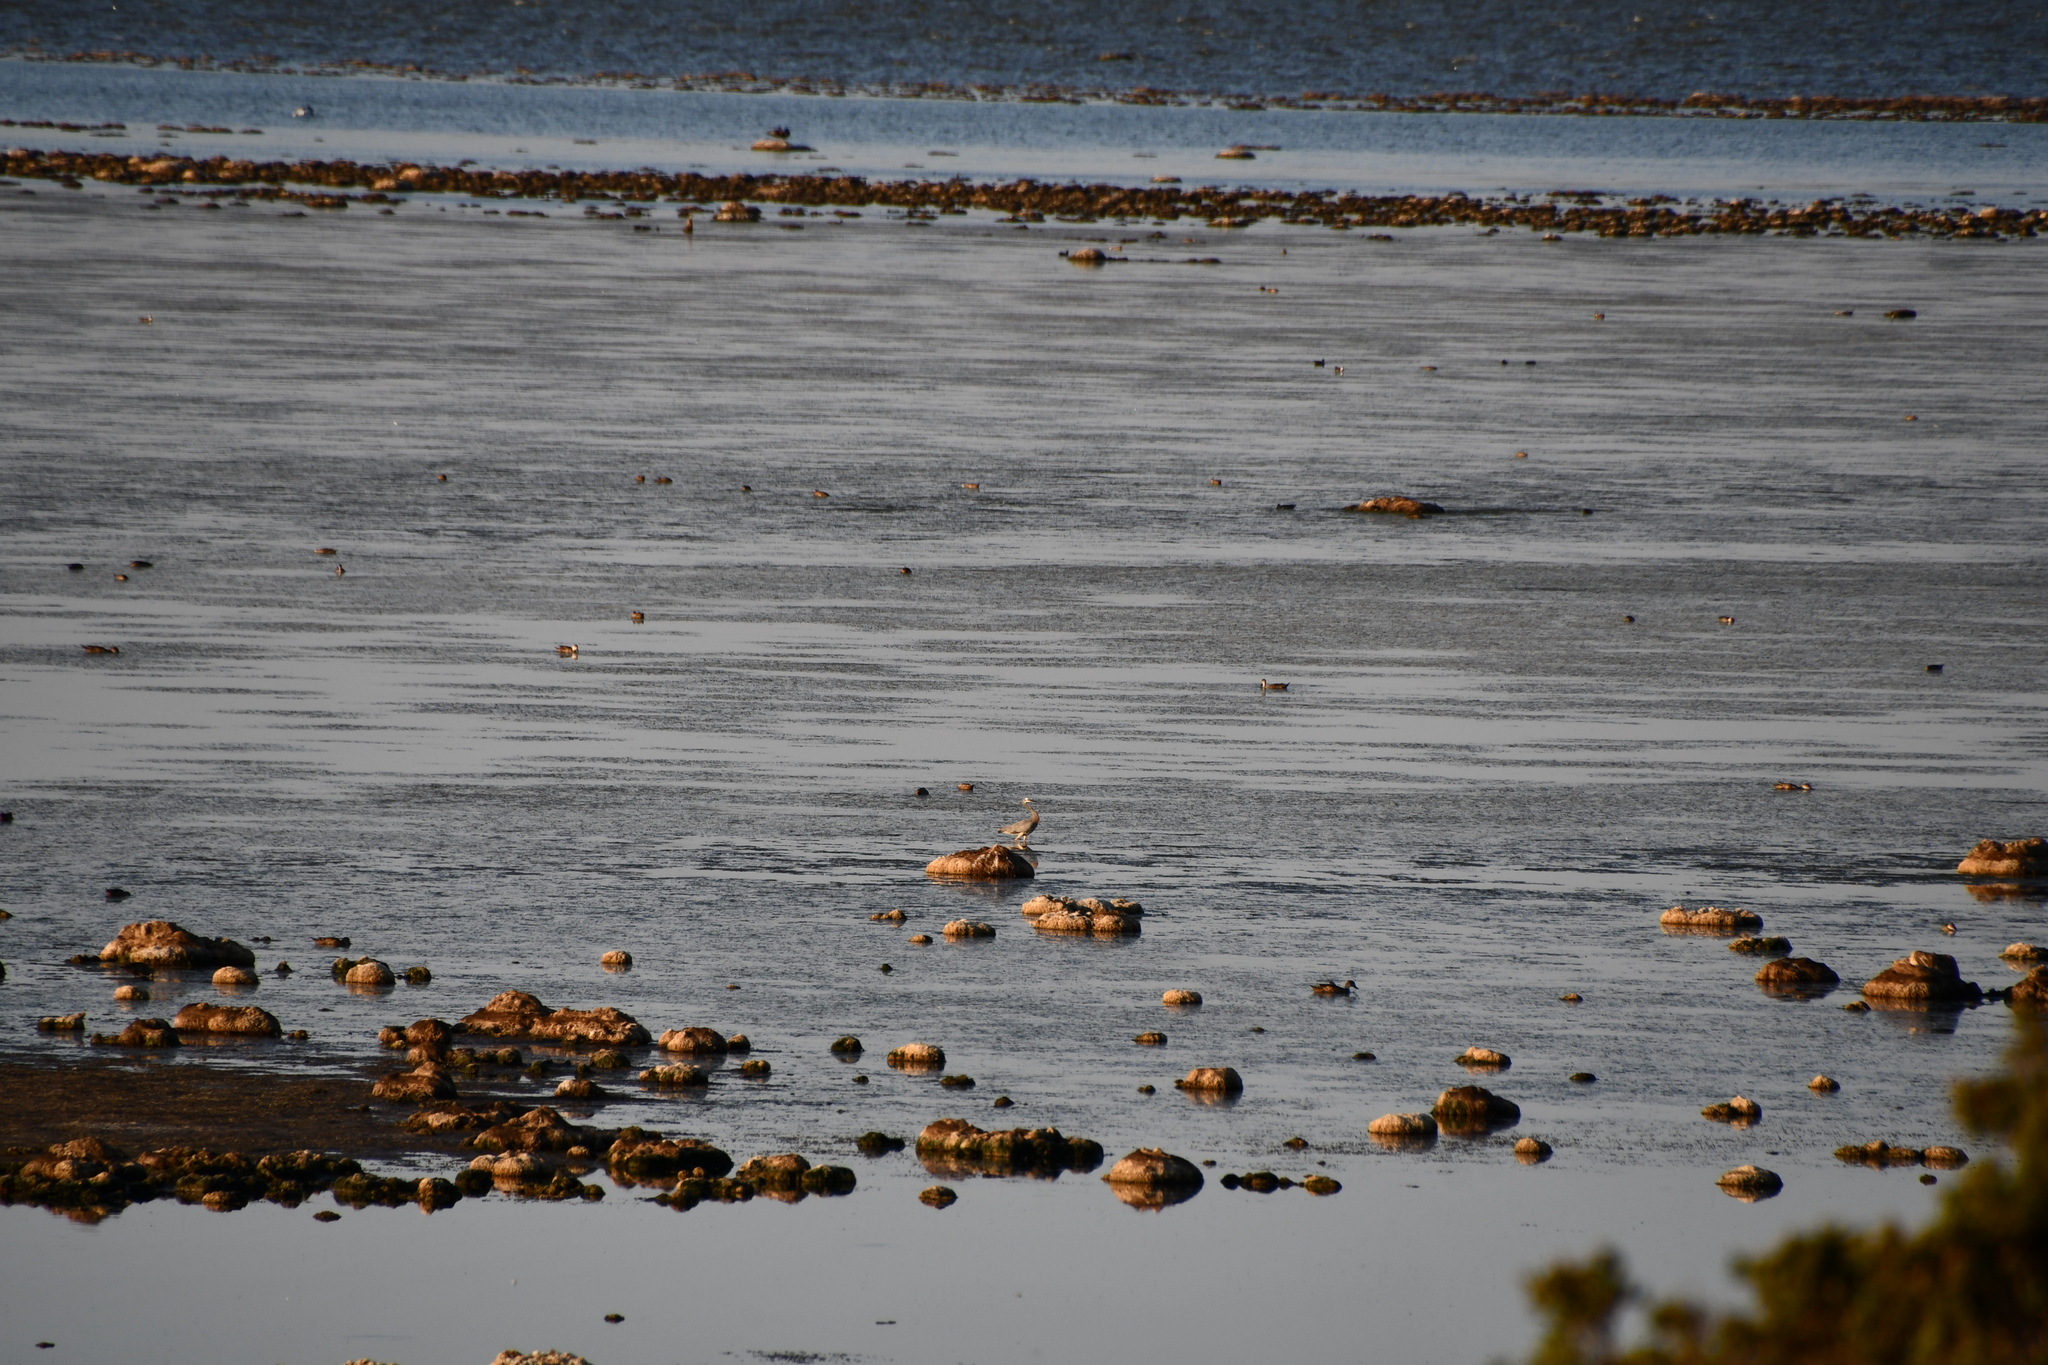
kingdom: Animalia
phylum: Chordata
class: Aves
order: Pelecaniformes
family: Ardeidae
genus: Egretta
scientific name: Egretta novaehollandiae
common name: White-faced heron
